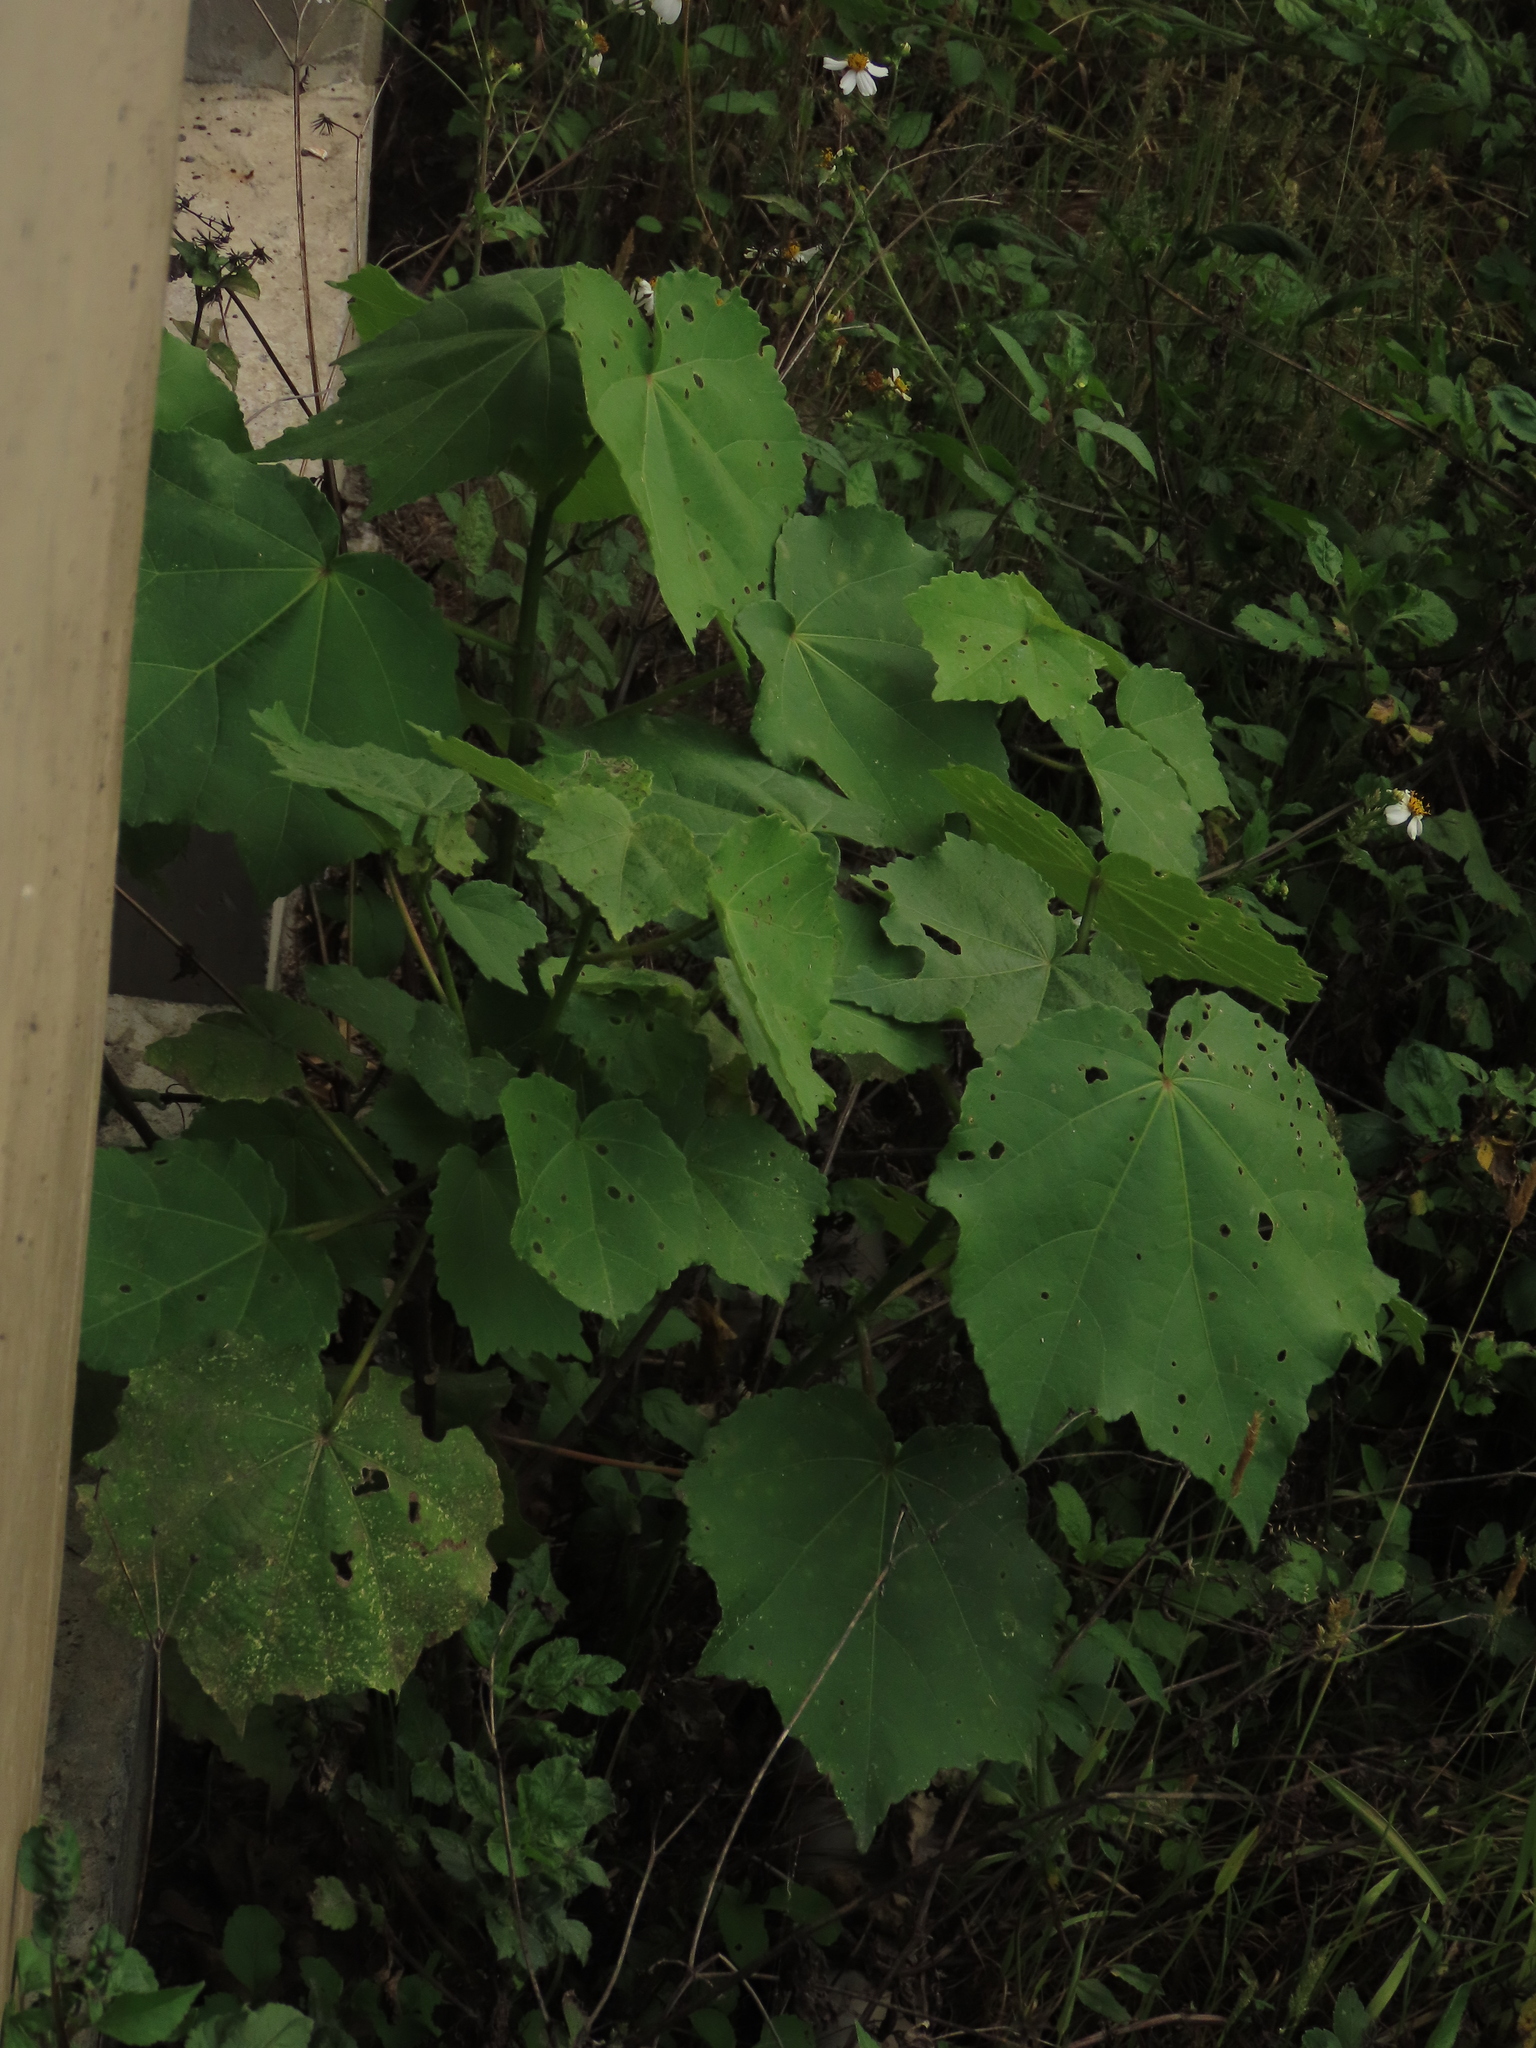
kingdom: Plantae
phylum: Tracheophyta
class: Magnoliopsida
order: Malvales
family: Malvaceae
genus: Hibiscus
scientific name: Hibiscus taiwanensis
